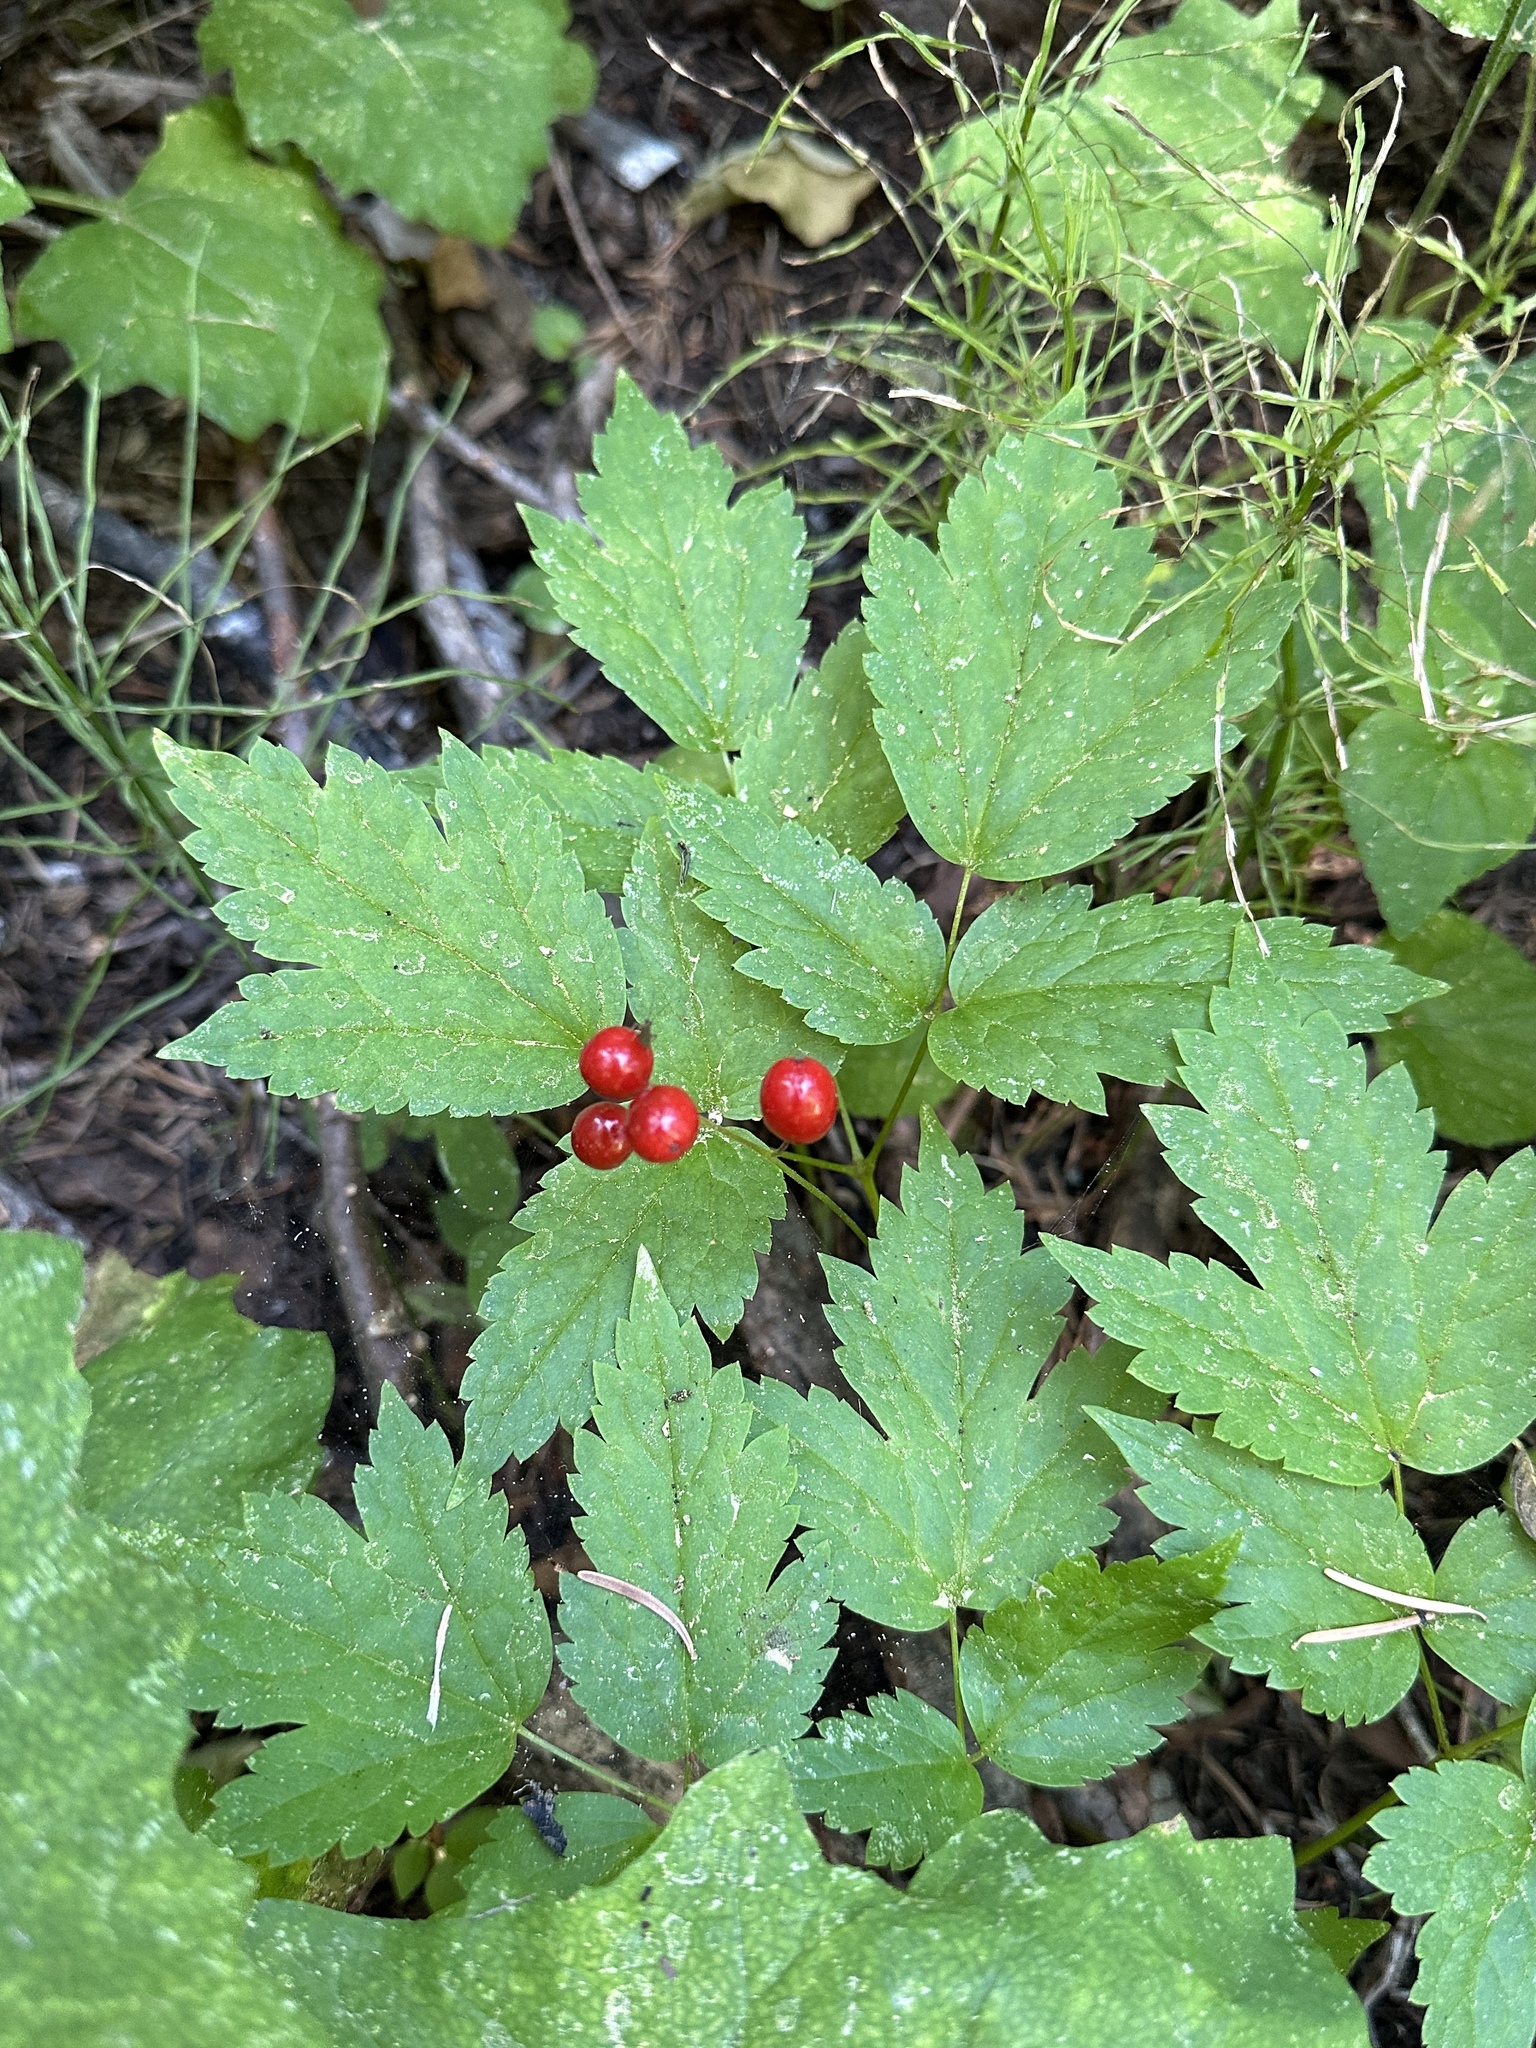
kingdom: Plantae
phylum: Tracheophyta
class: Magnoliopsida
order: Ranunculales
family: Ranunculaceae
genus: Actaea
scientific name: Actaea rubra
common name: Red baneberry
